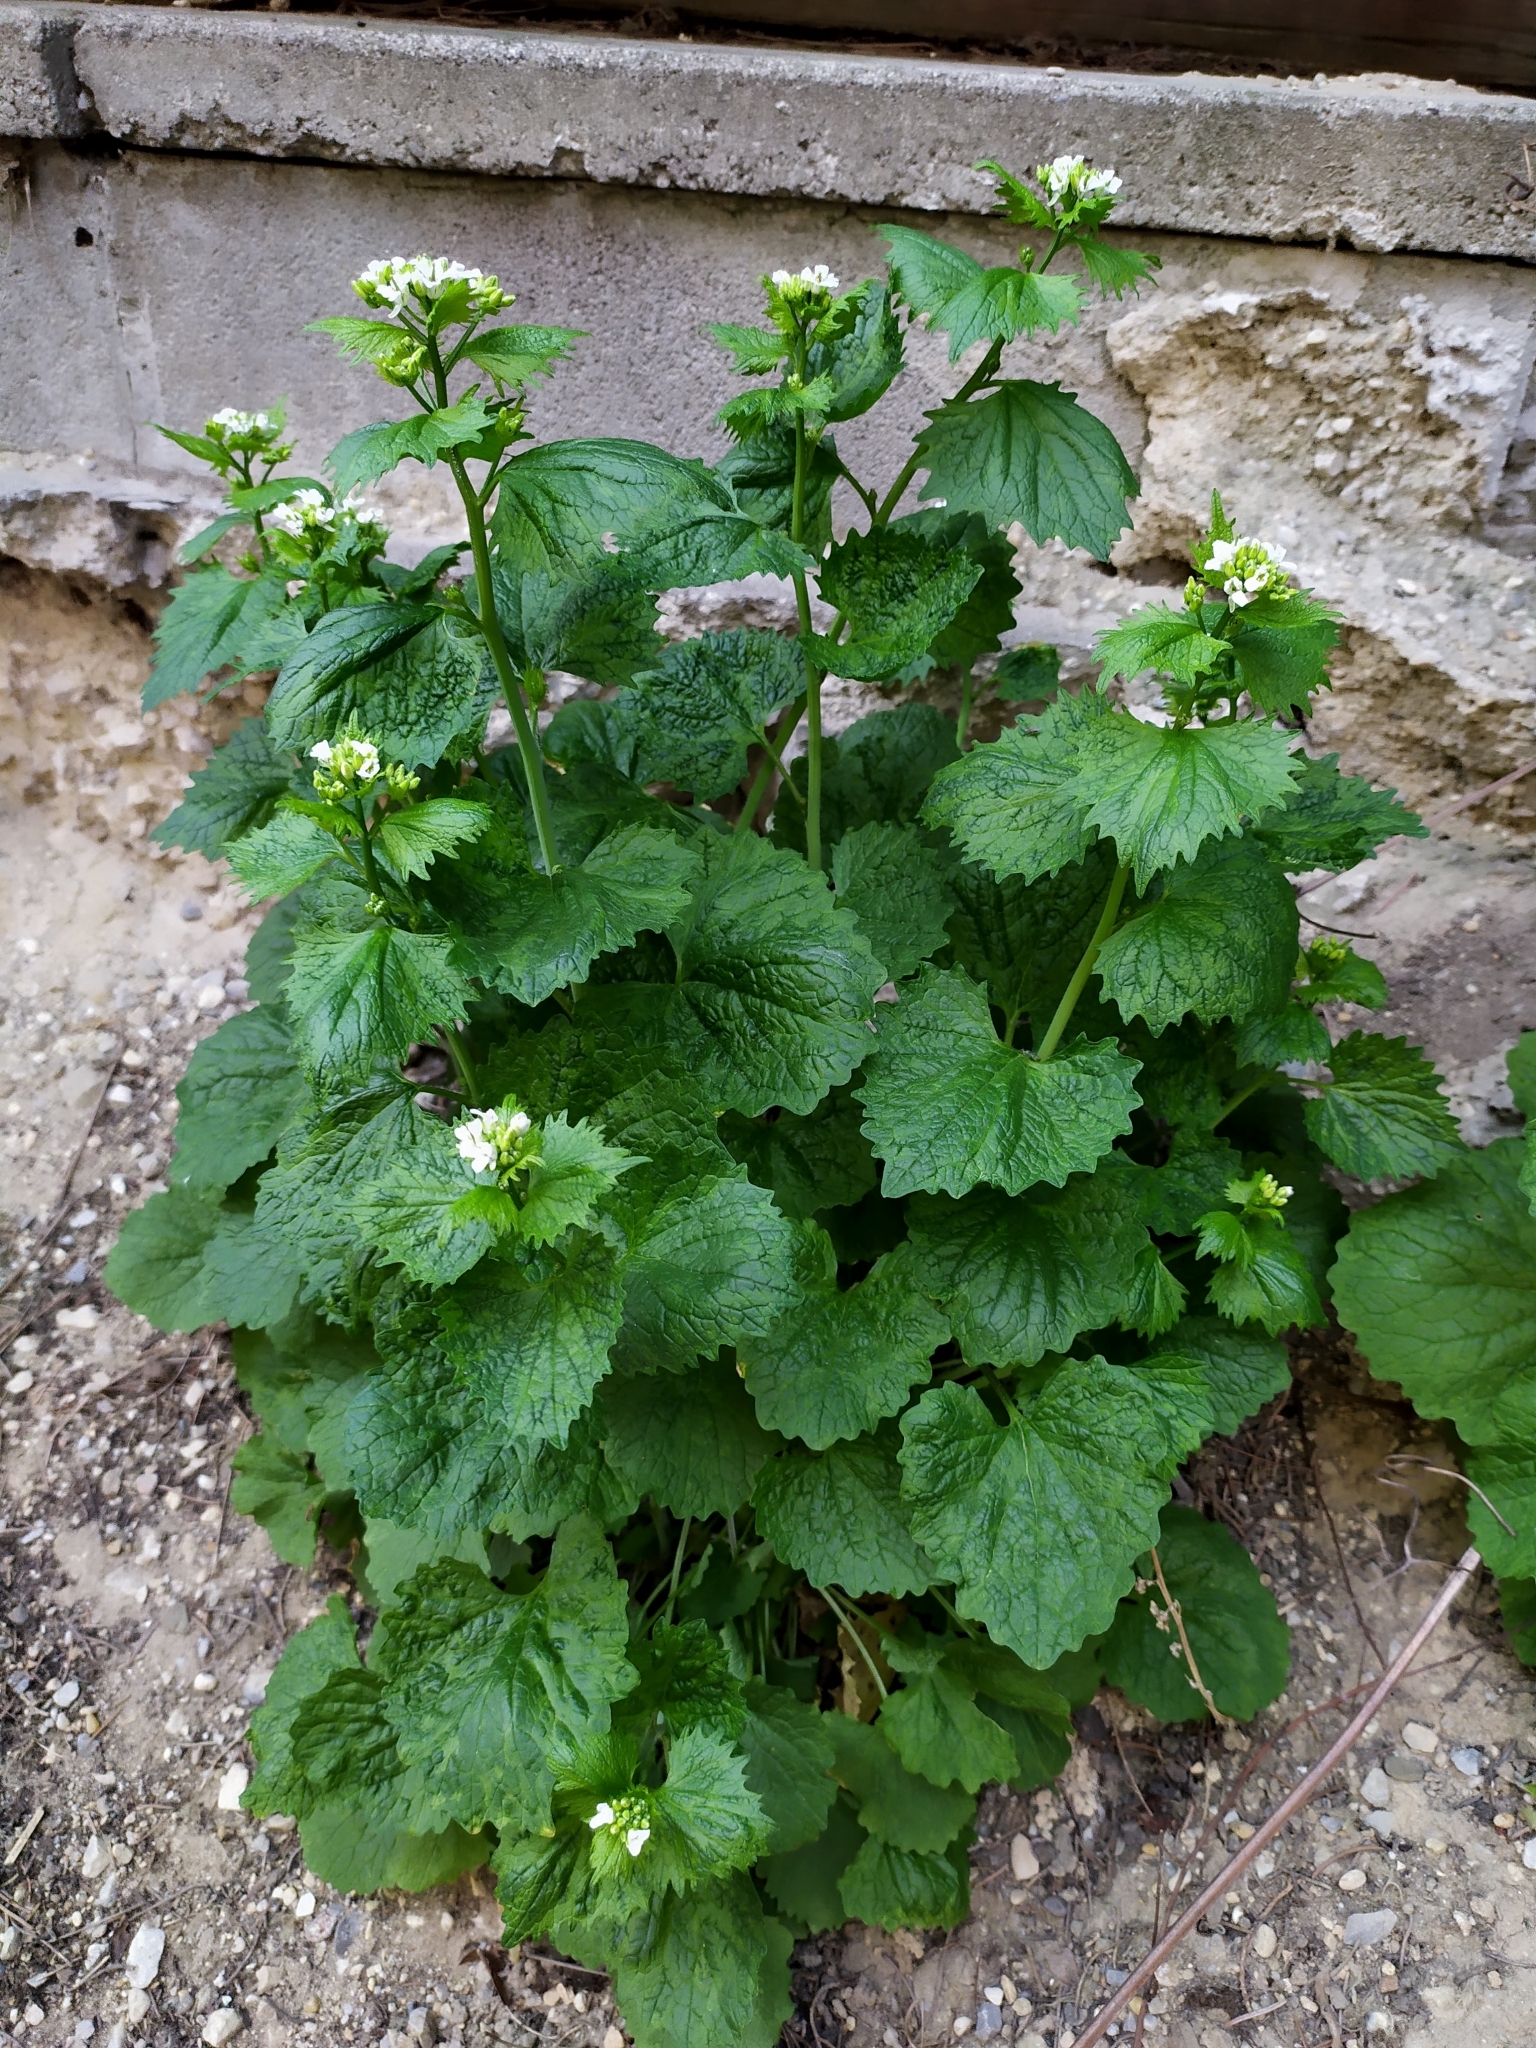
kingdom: Plantae
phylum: Tracheophyta
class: Magnoliopsida
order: Brassicales
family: Brassicaceae
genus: Alliaria
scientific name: Alliaria petiolata
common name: Garlic mustard
